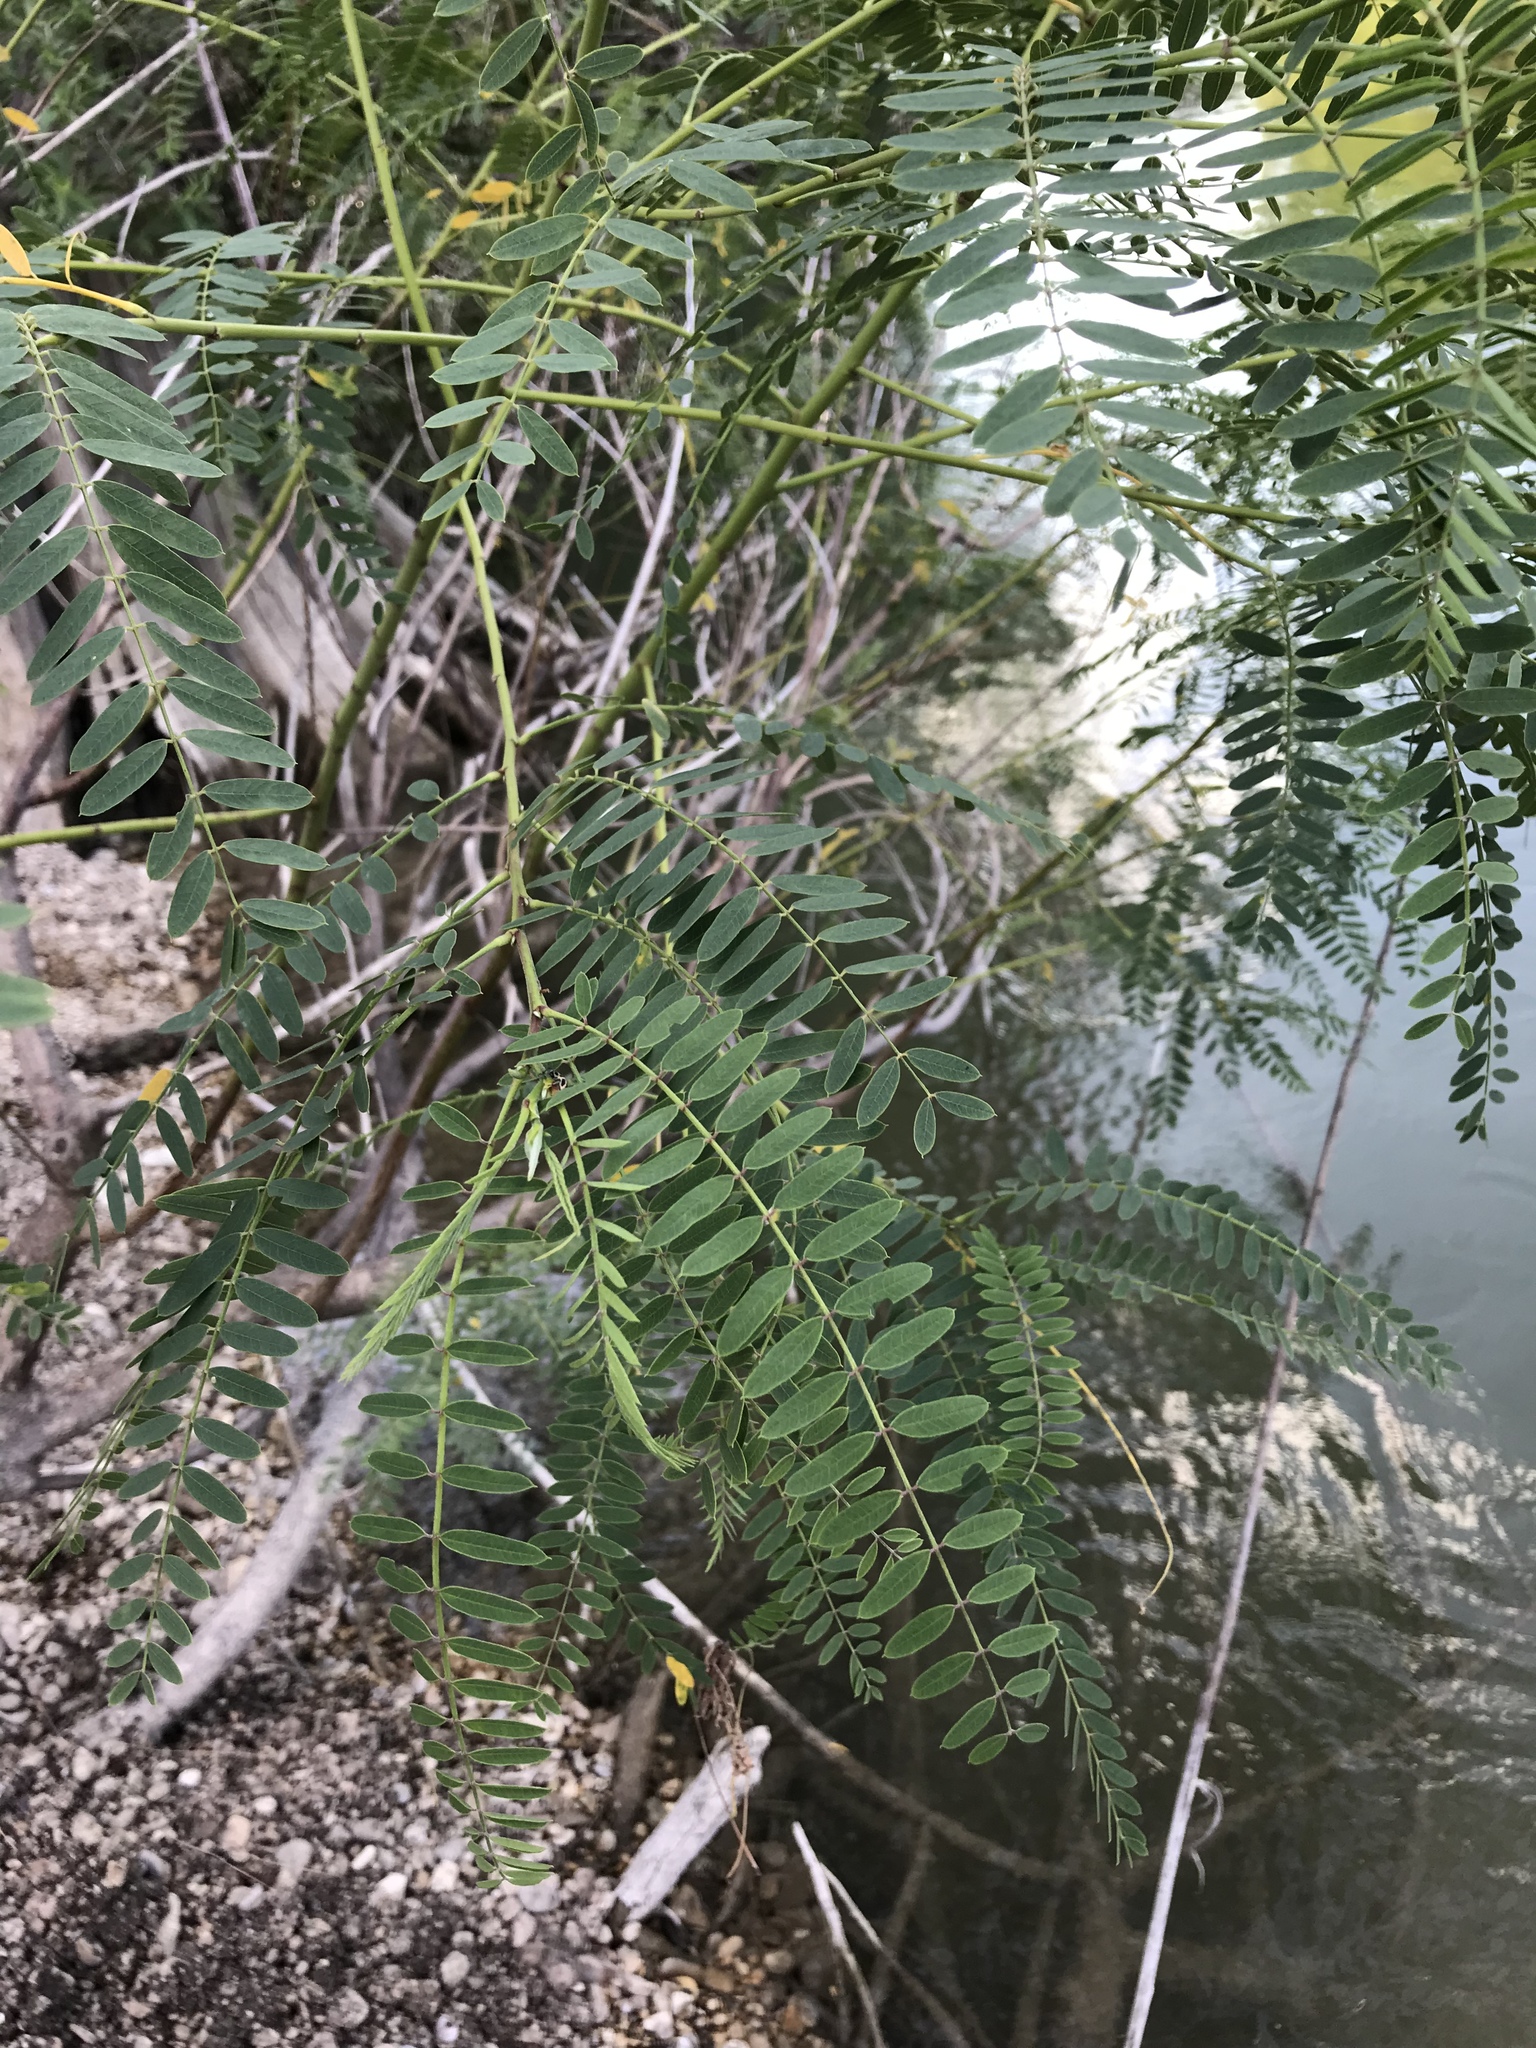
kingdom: Plantae
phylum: Tracheophyta
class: Magnoliopsida
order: Fabales
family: Fabaceae
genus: Sesbania
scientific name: Sesbania drummondii
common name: Poison-bean
